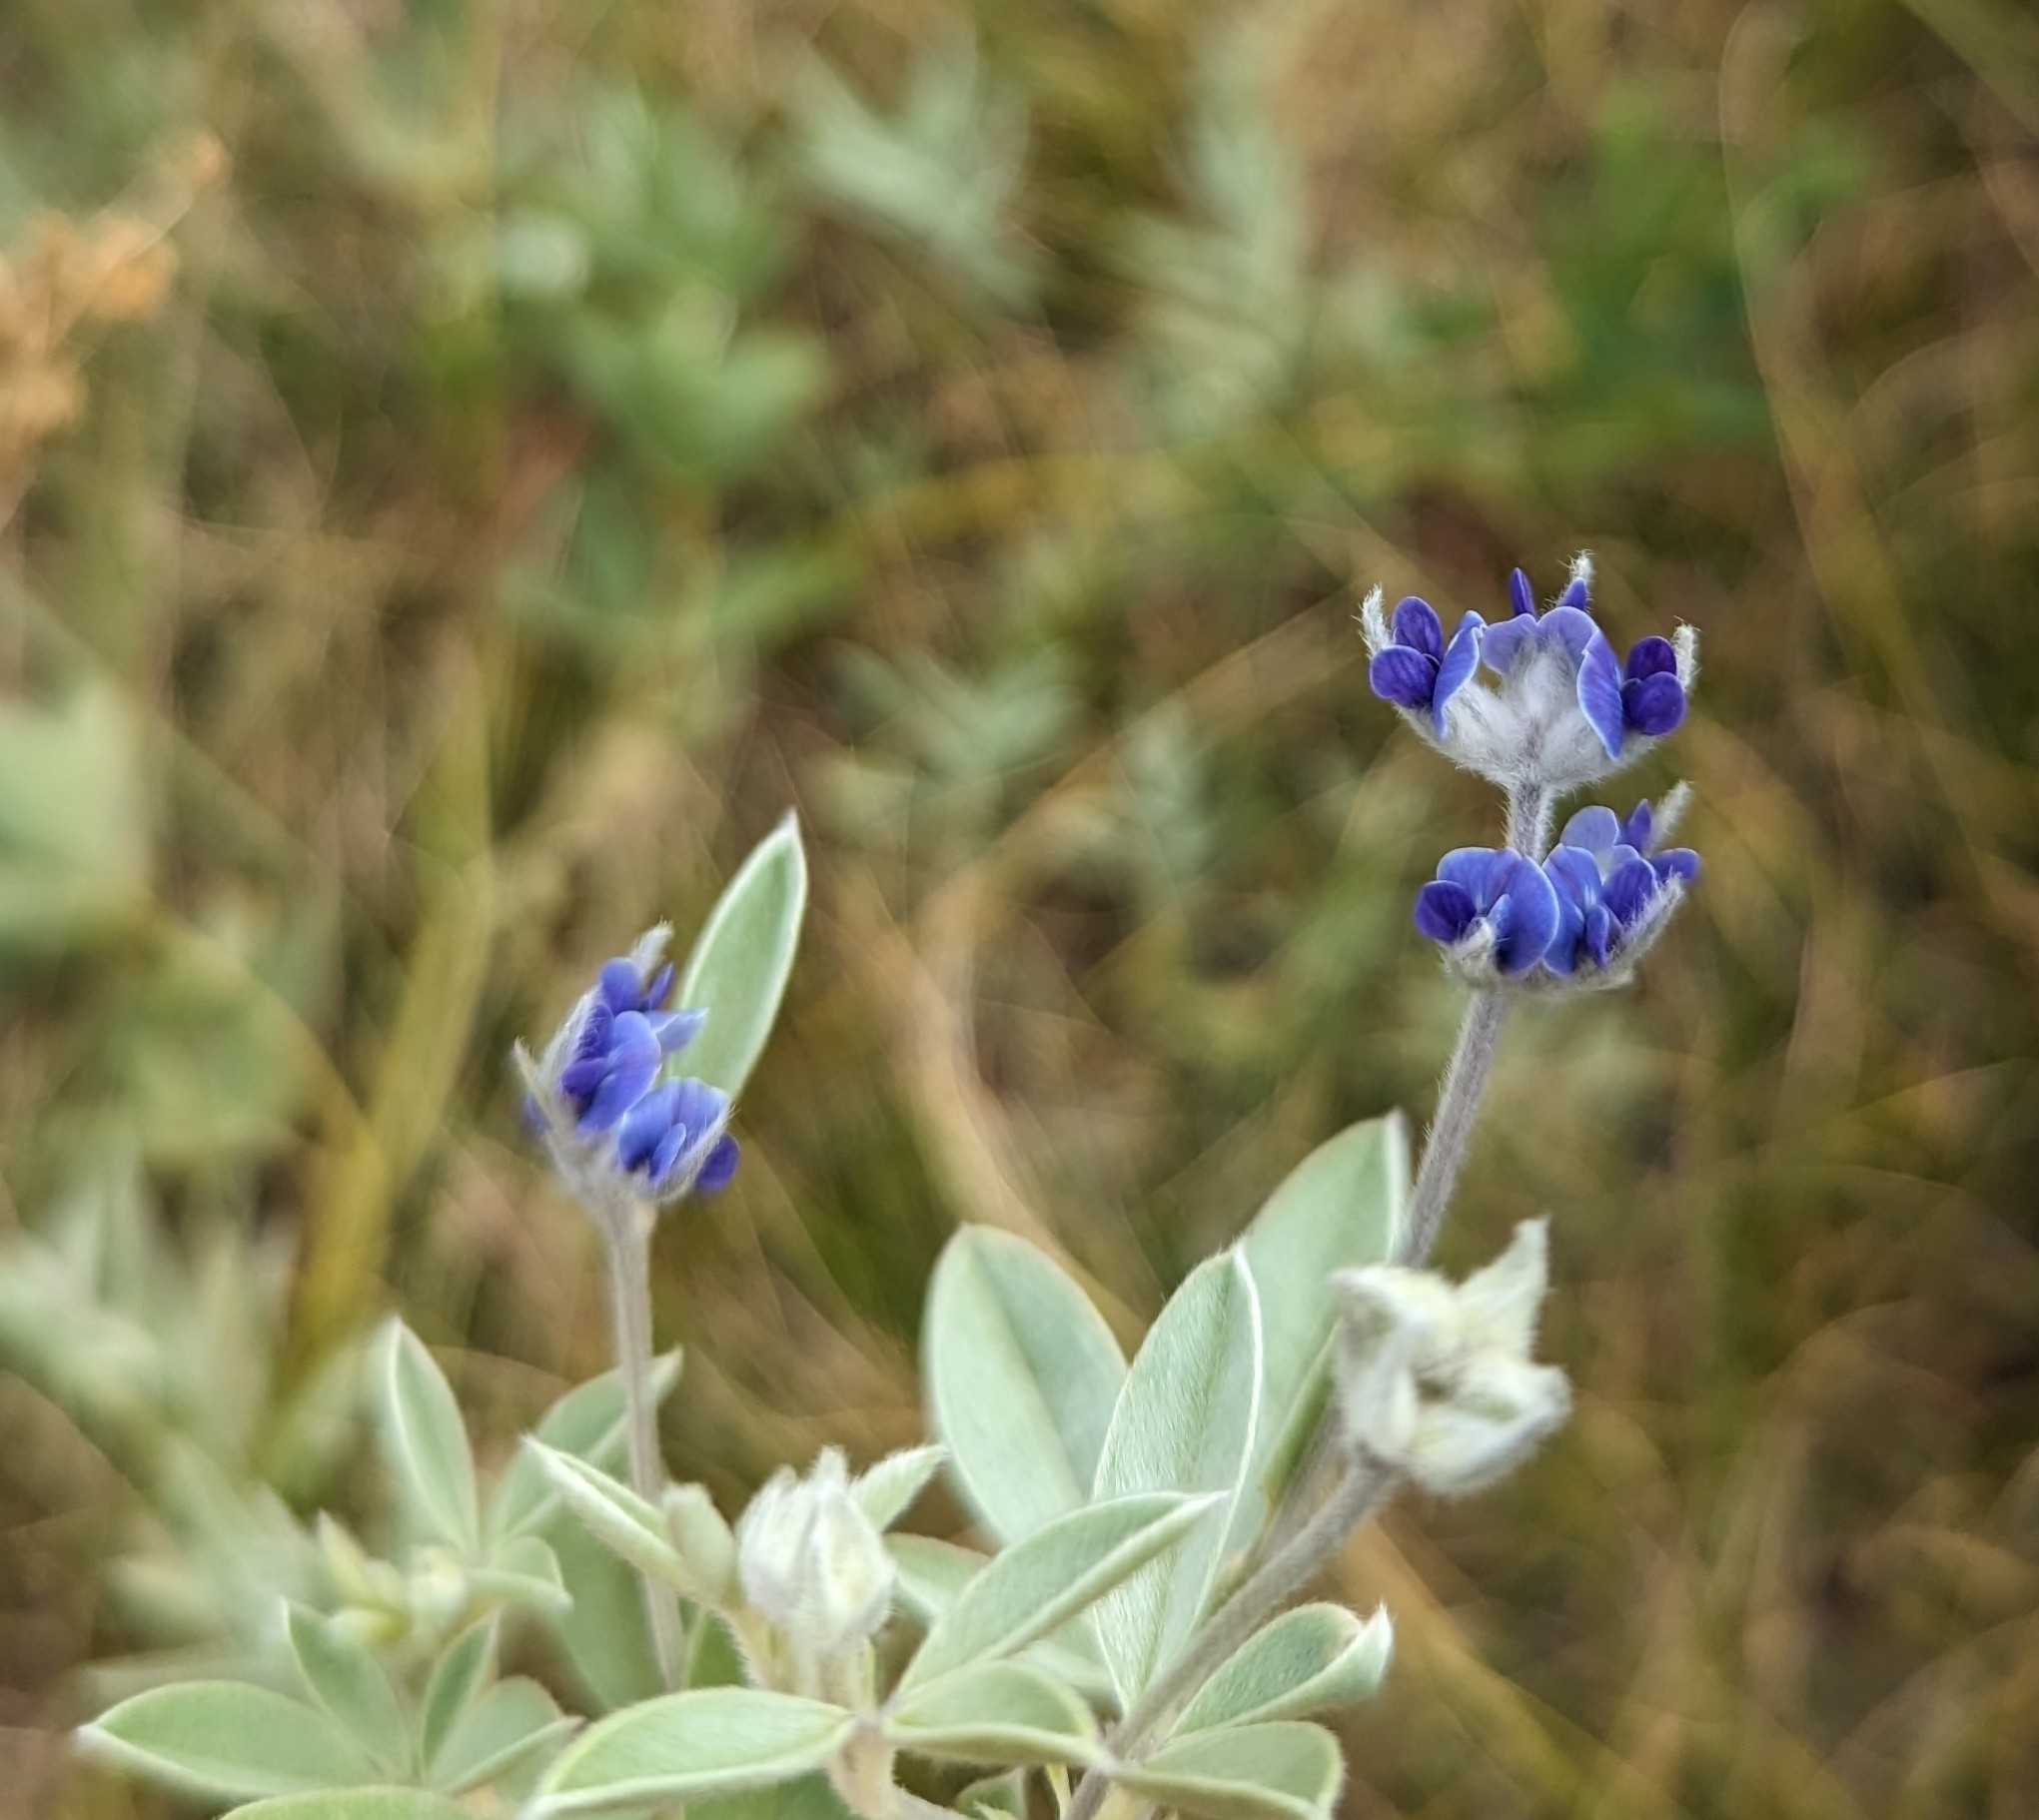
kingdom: Plantae
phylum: Tracheophyta
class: Magnoliopsida
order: Fabales
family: Fabaceae
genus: Pediomelum
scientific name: Pediomelum argophyllum
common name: Silver-leaved indian breadroot
